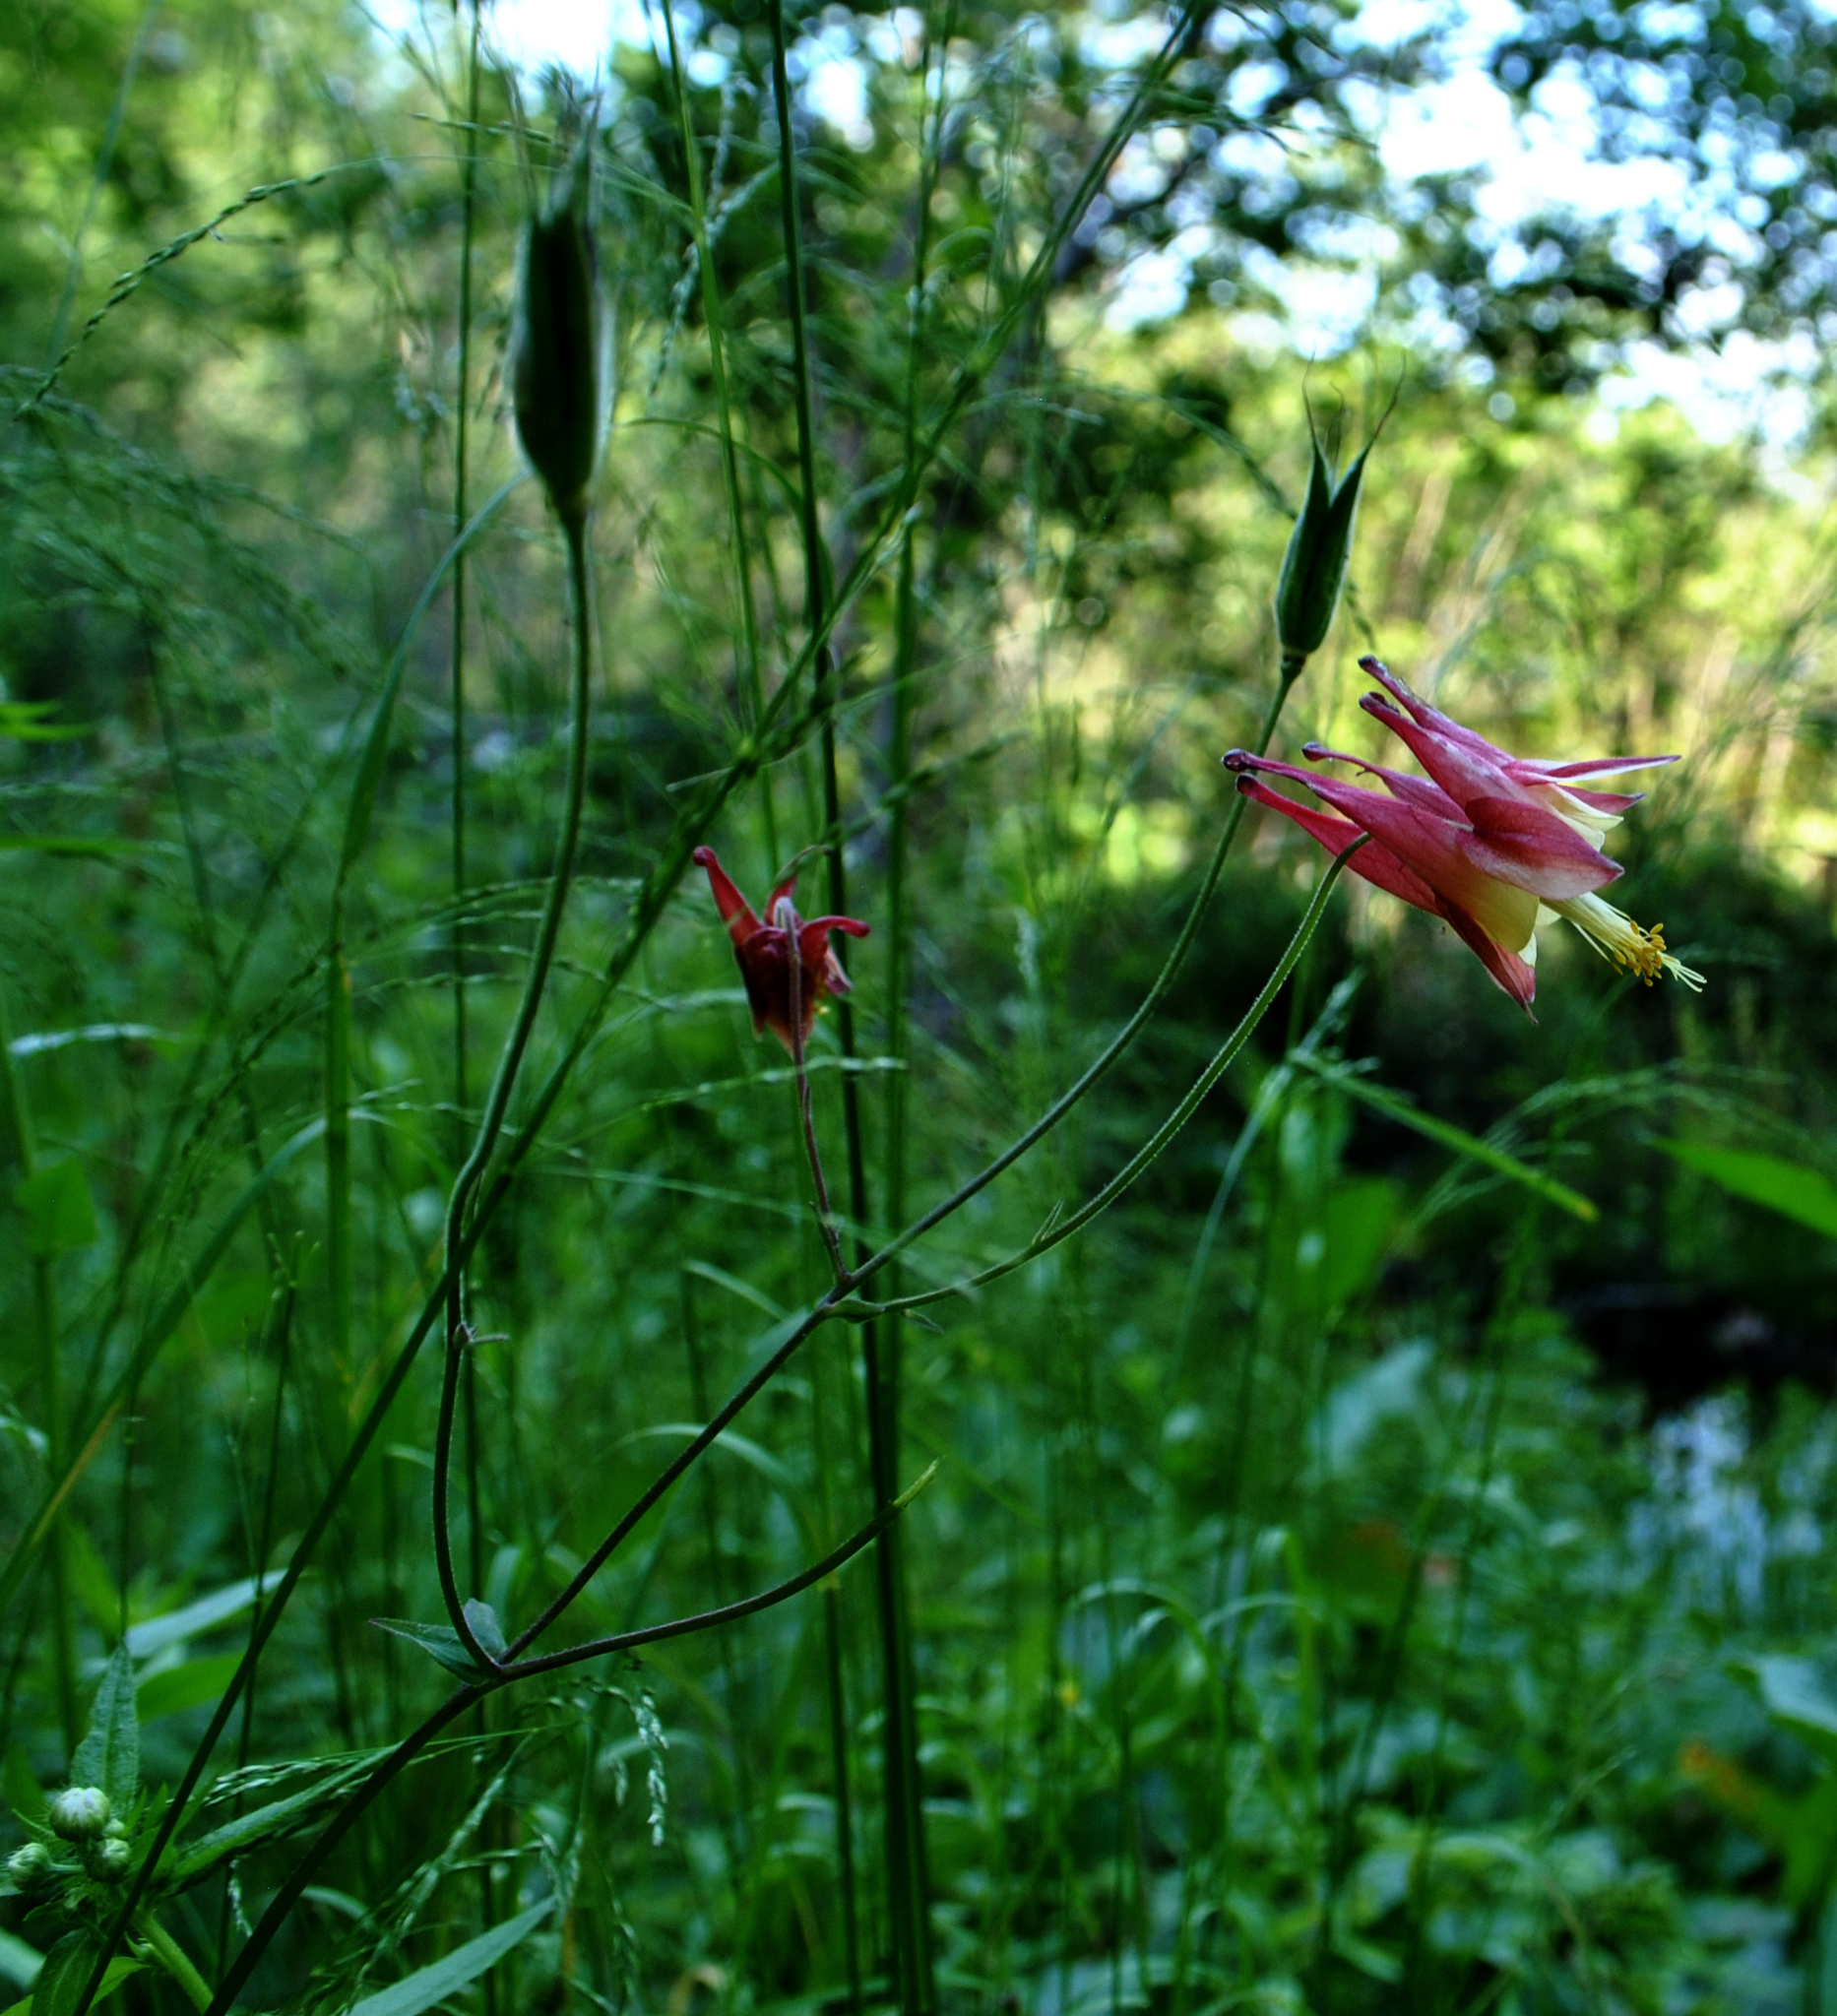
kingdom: Plantae
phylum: Tracheophyta
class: Magnoliopsida
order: Ranunculales
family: Ranunculaceae
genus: Aquilegia
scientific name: Aquilegia canadensis
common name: American columbine
